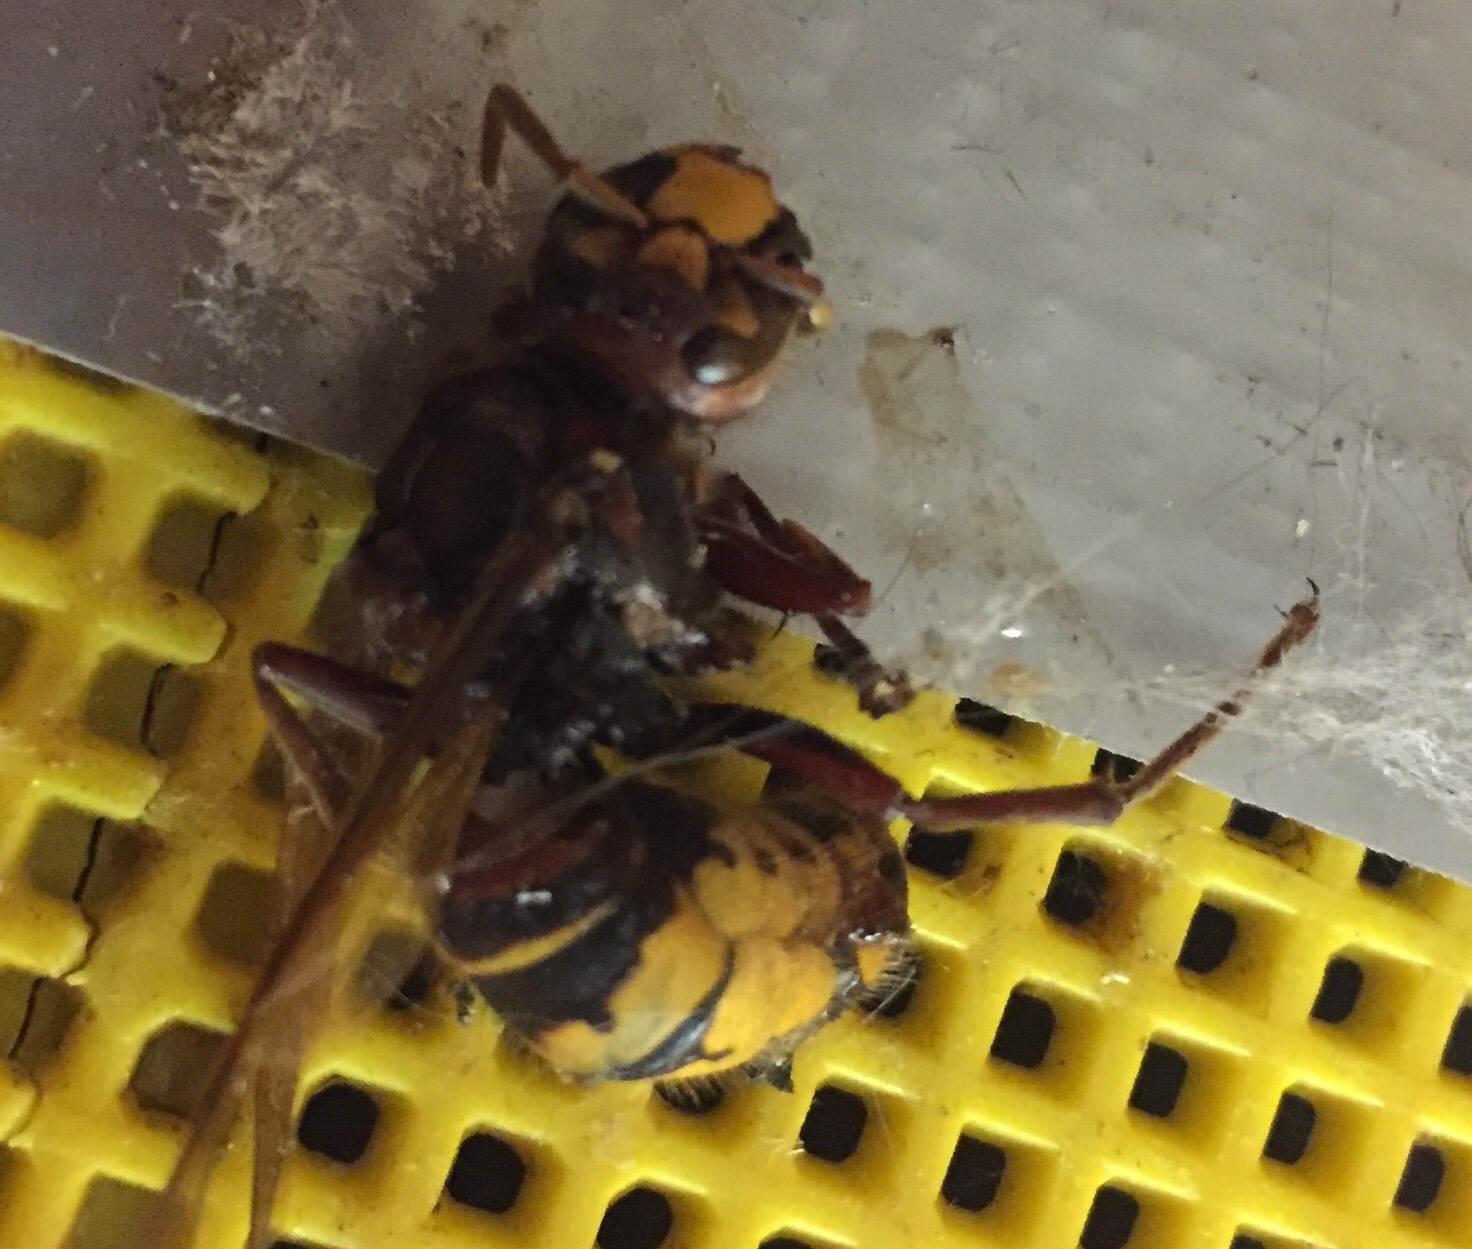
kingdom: Animalia
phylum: Arthropoda
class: Insecta
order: Hymenoptera
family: Vespidae
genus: Vespa
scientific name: Vespa crabro
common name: Hornet
